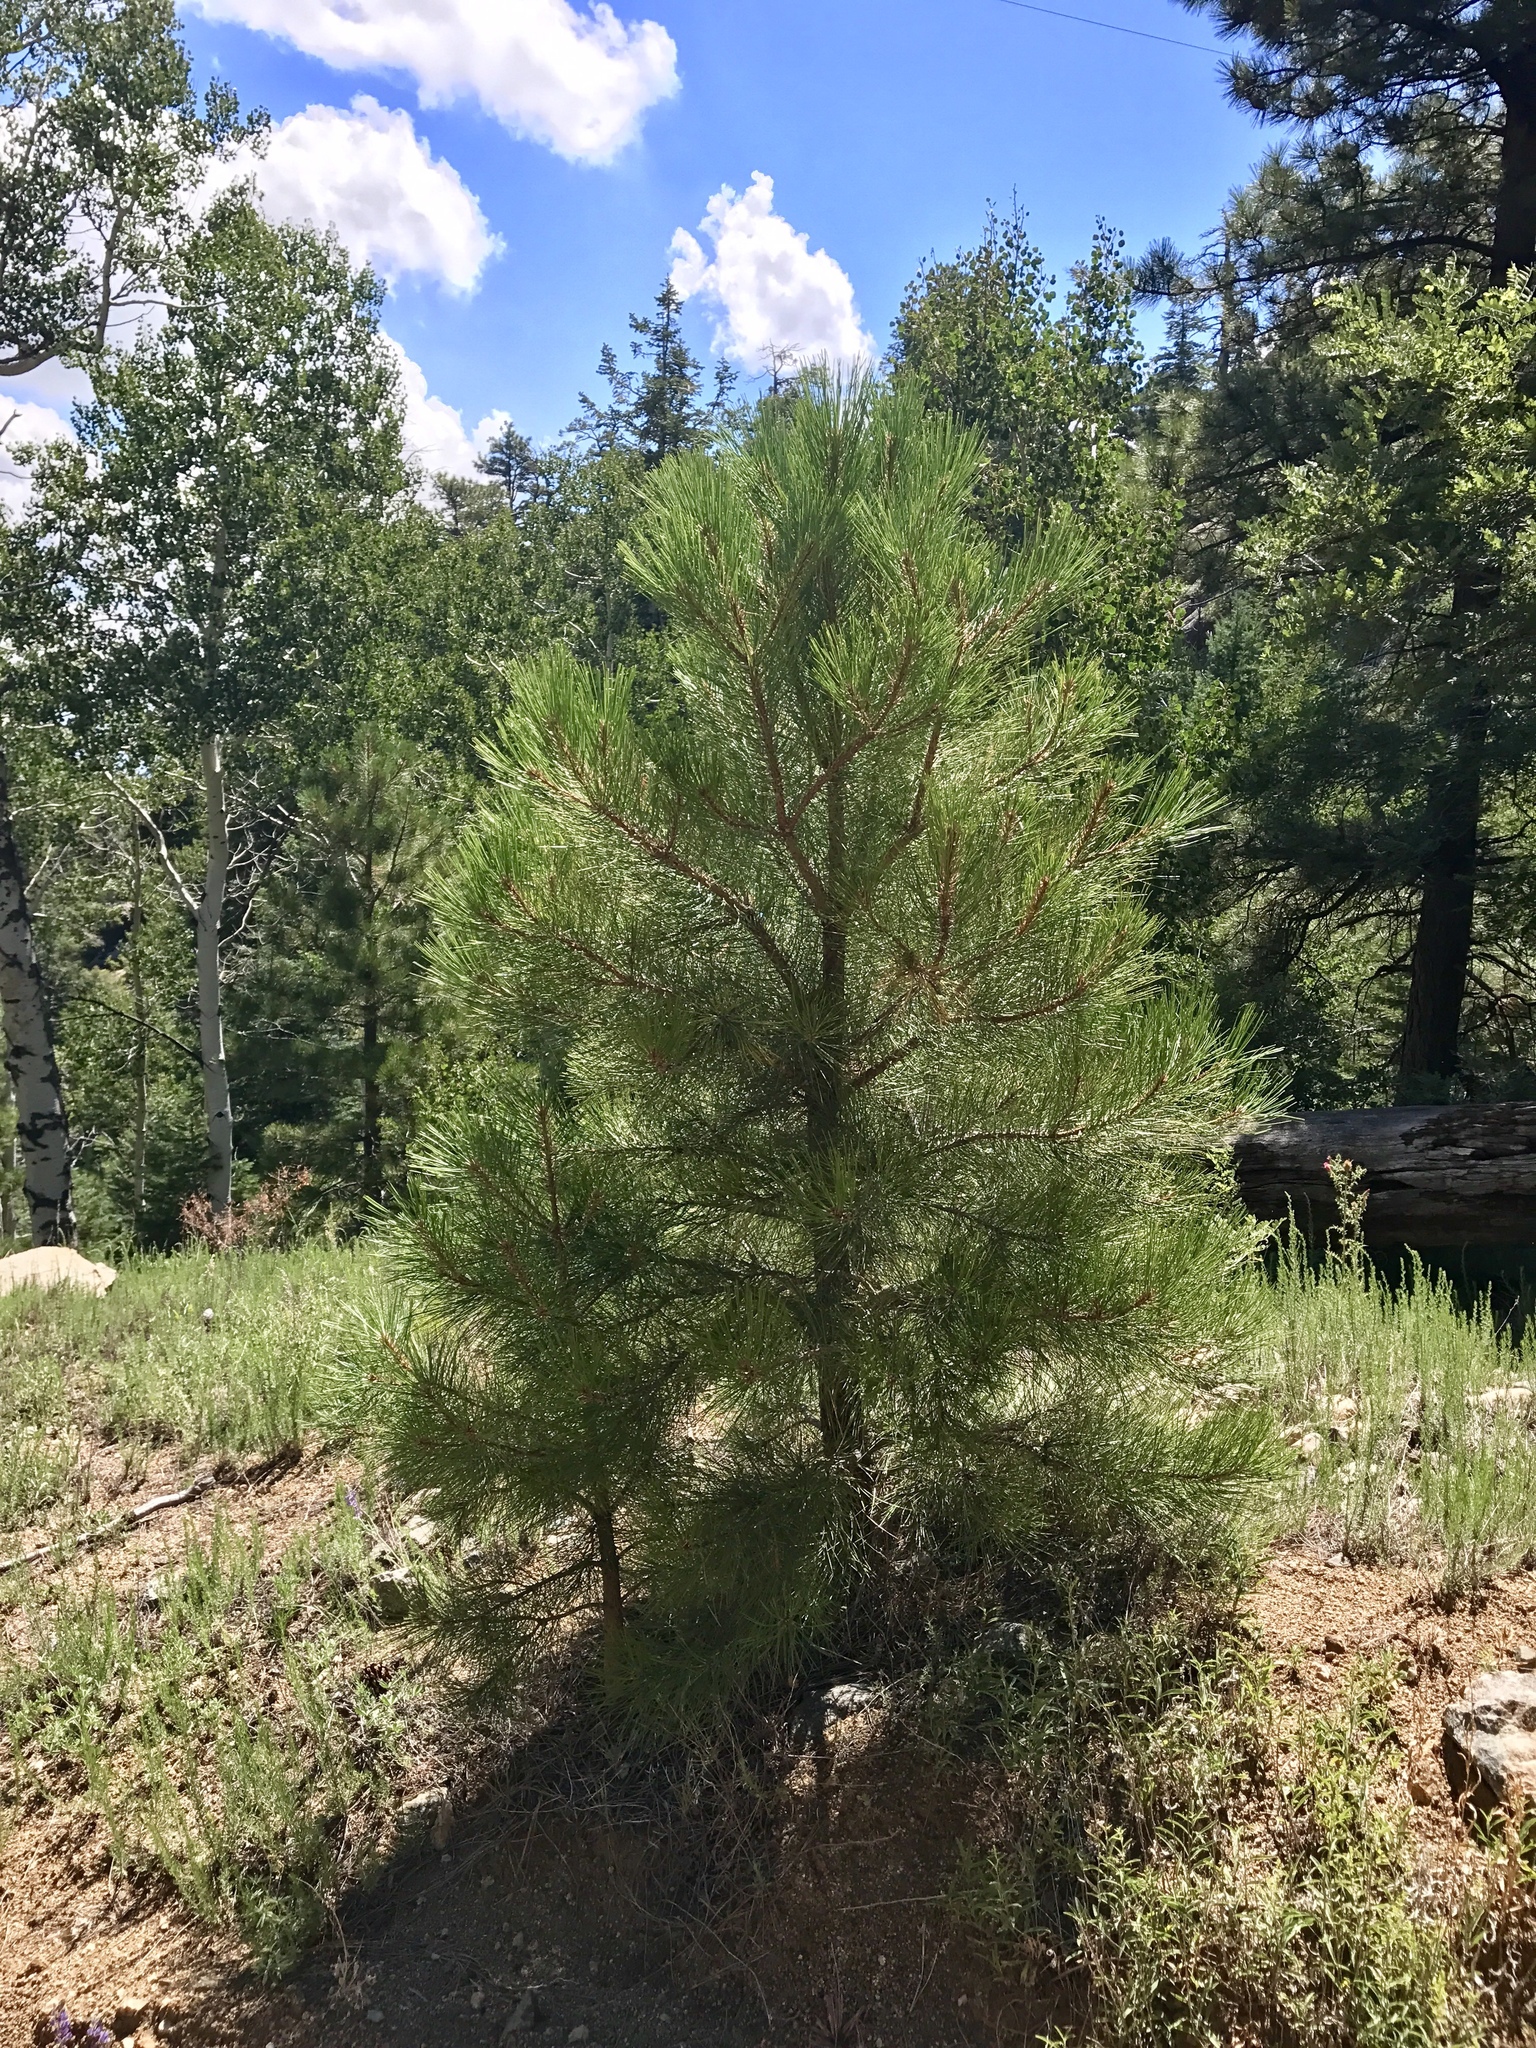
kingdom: Plantae
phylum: Tracheophyta
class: Pinopsida
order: Pinales
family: Pinaceae
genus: Pinus
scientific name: Pinus ponderosa
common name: Western yellow-pine
